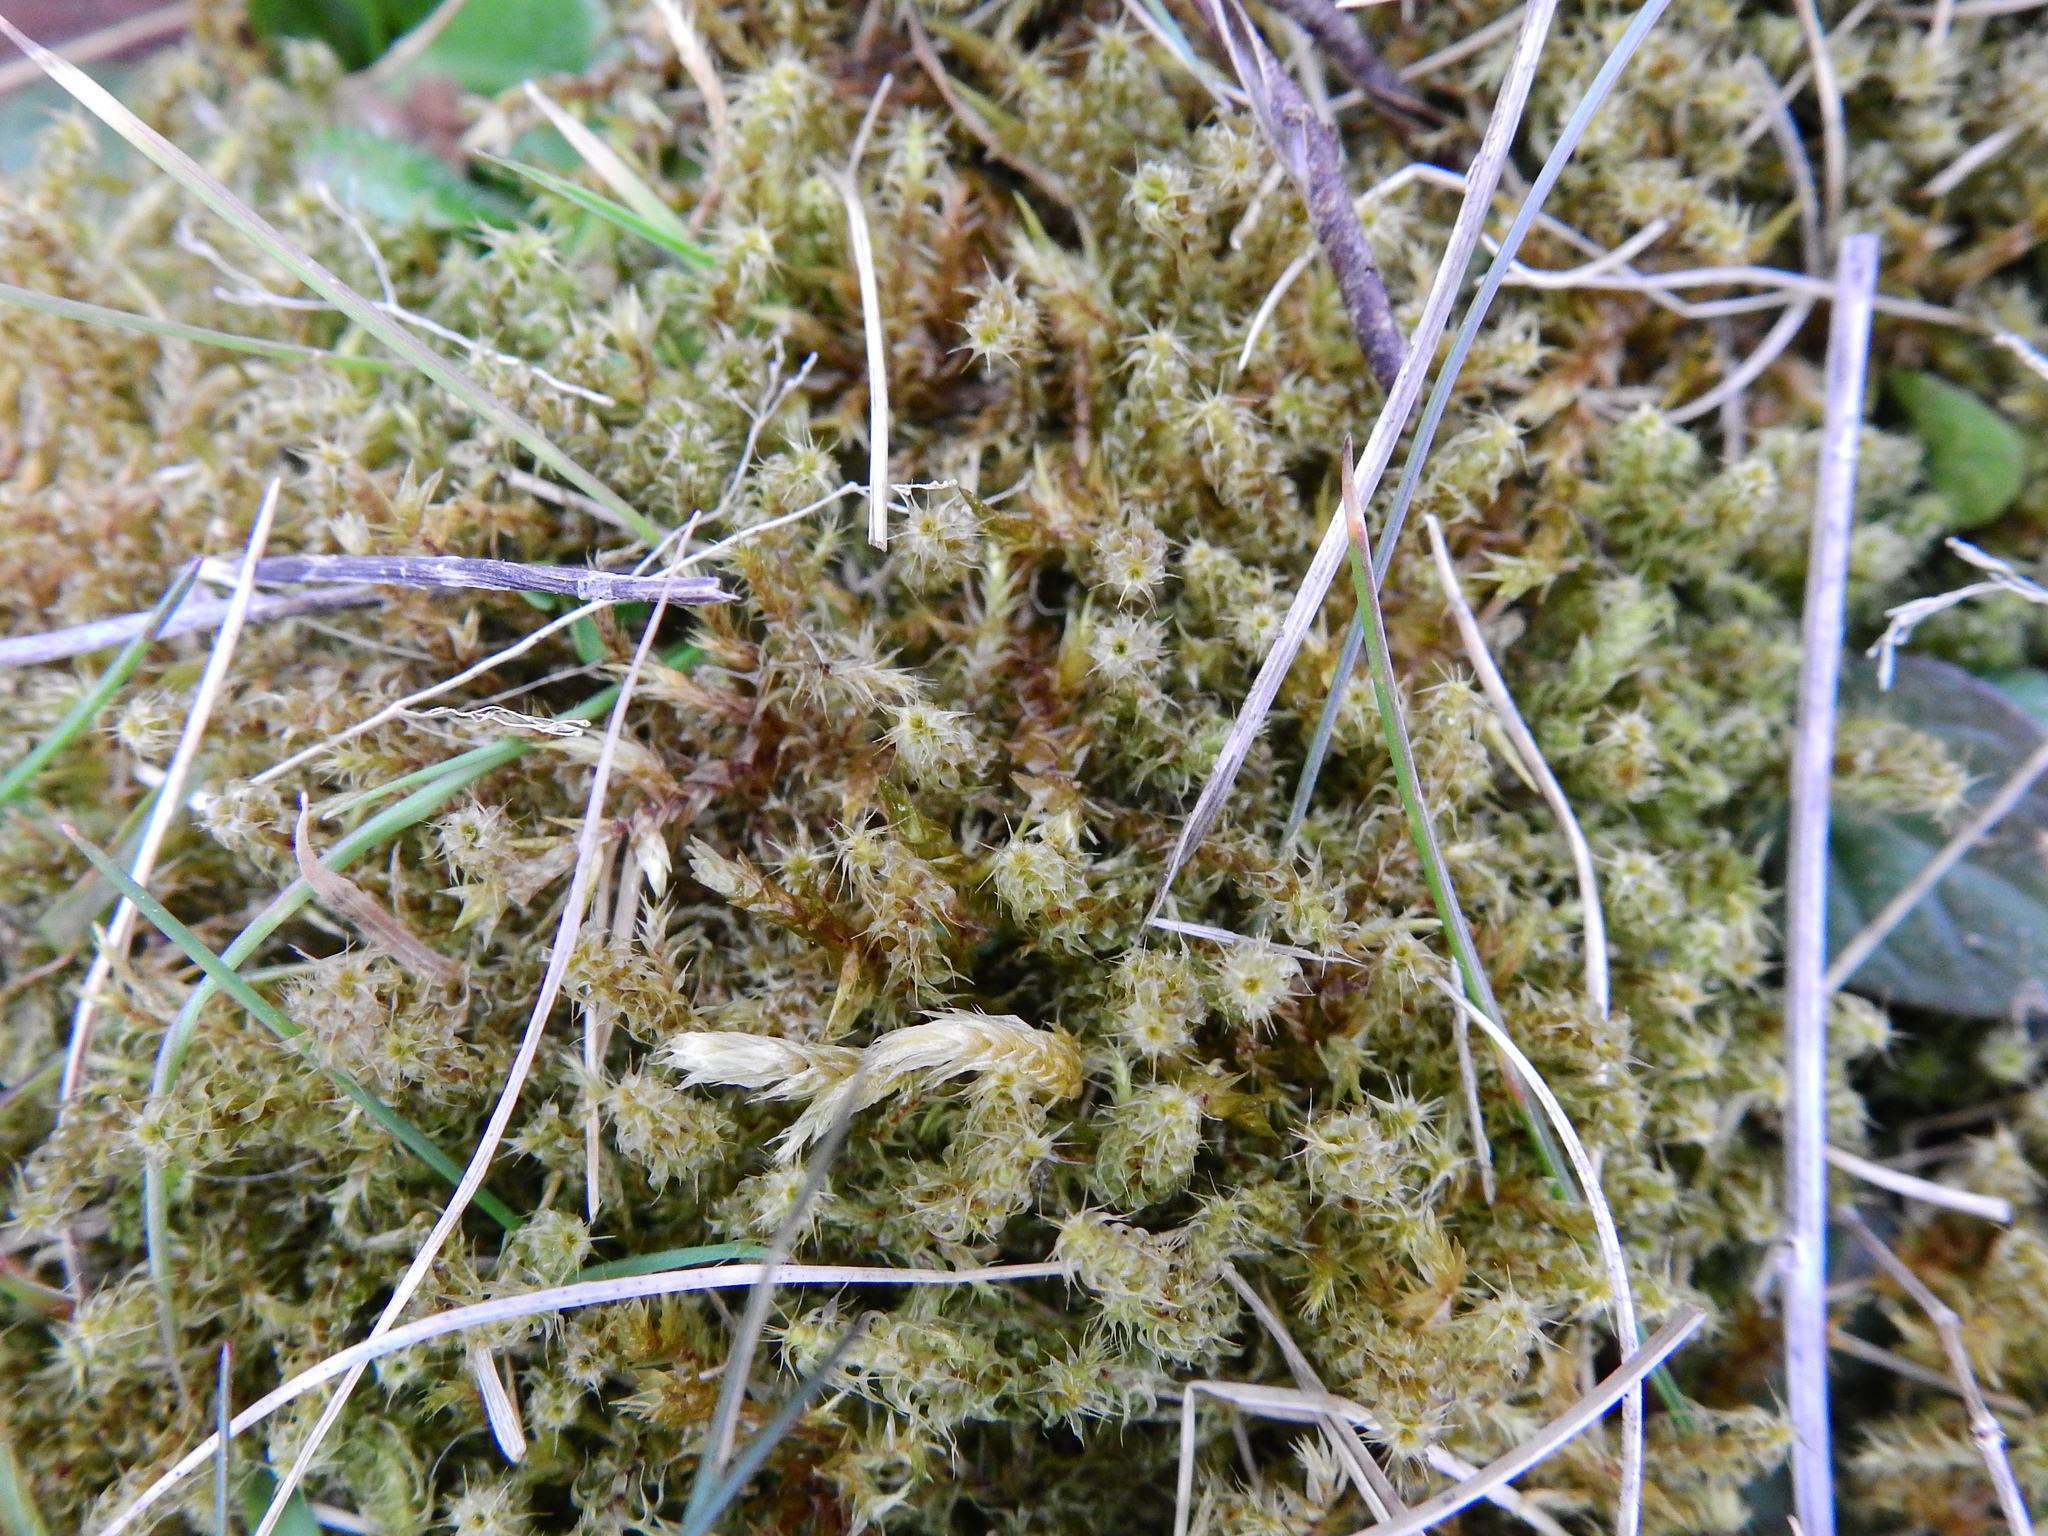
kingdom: Plantae
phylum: Bryophyta
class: Bryopsida
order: Hypnales
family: Hylocomiaceae
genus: Rhytidiadelphus
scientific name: Rhytidiadelphus squarrosus
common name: Springy turf-moss
